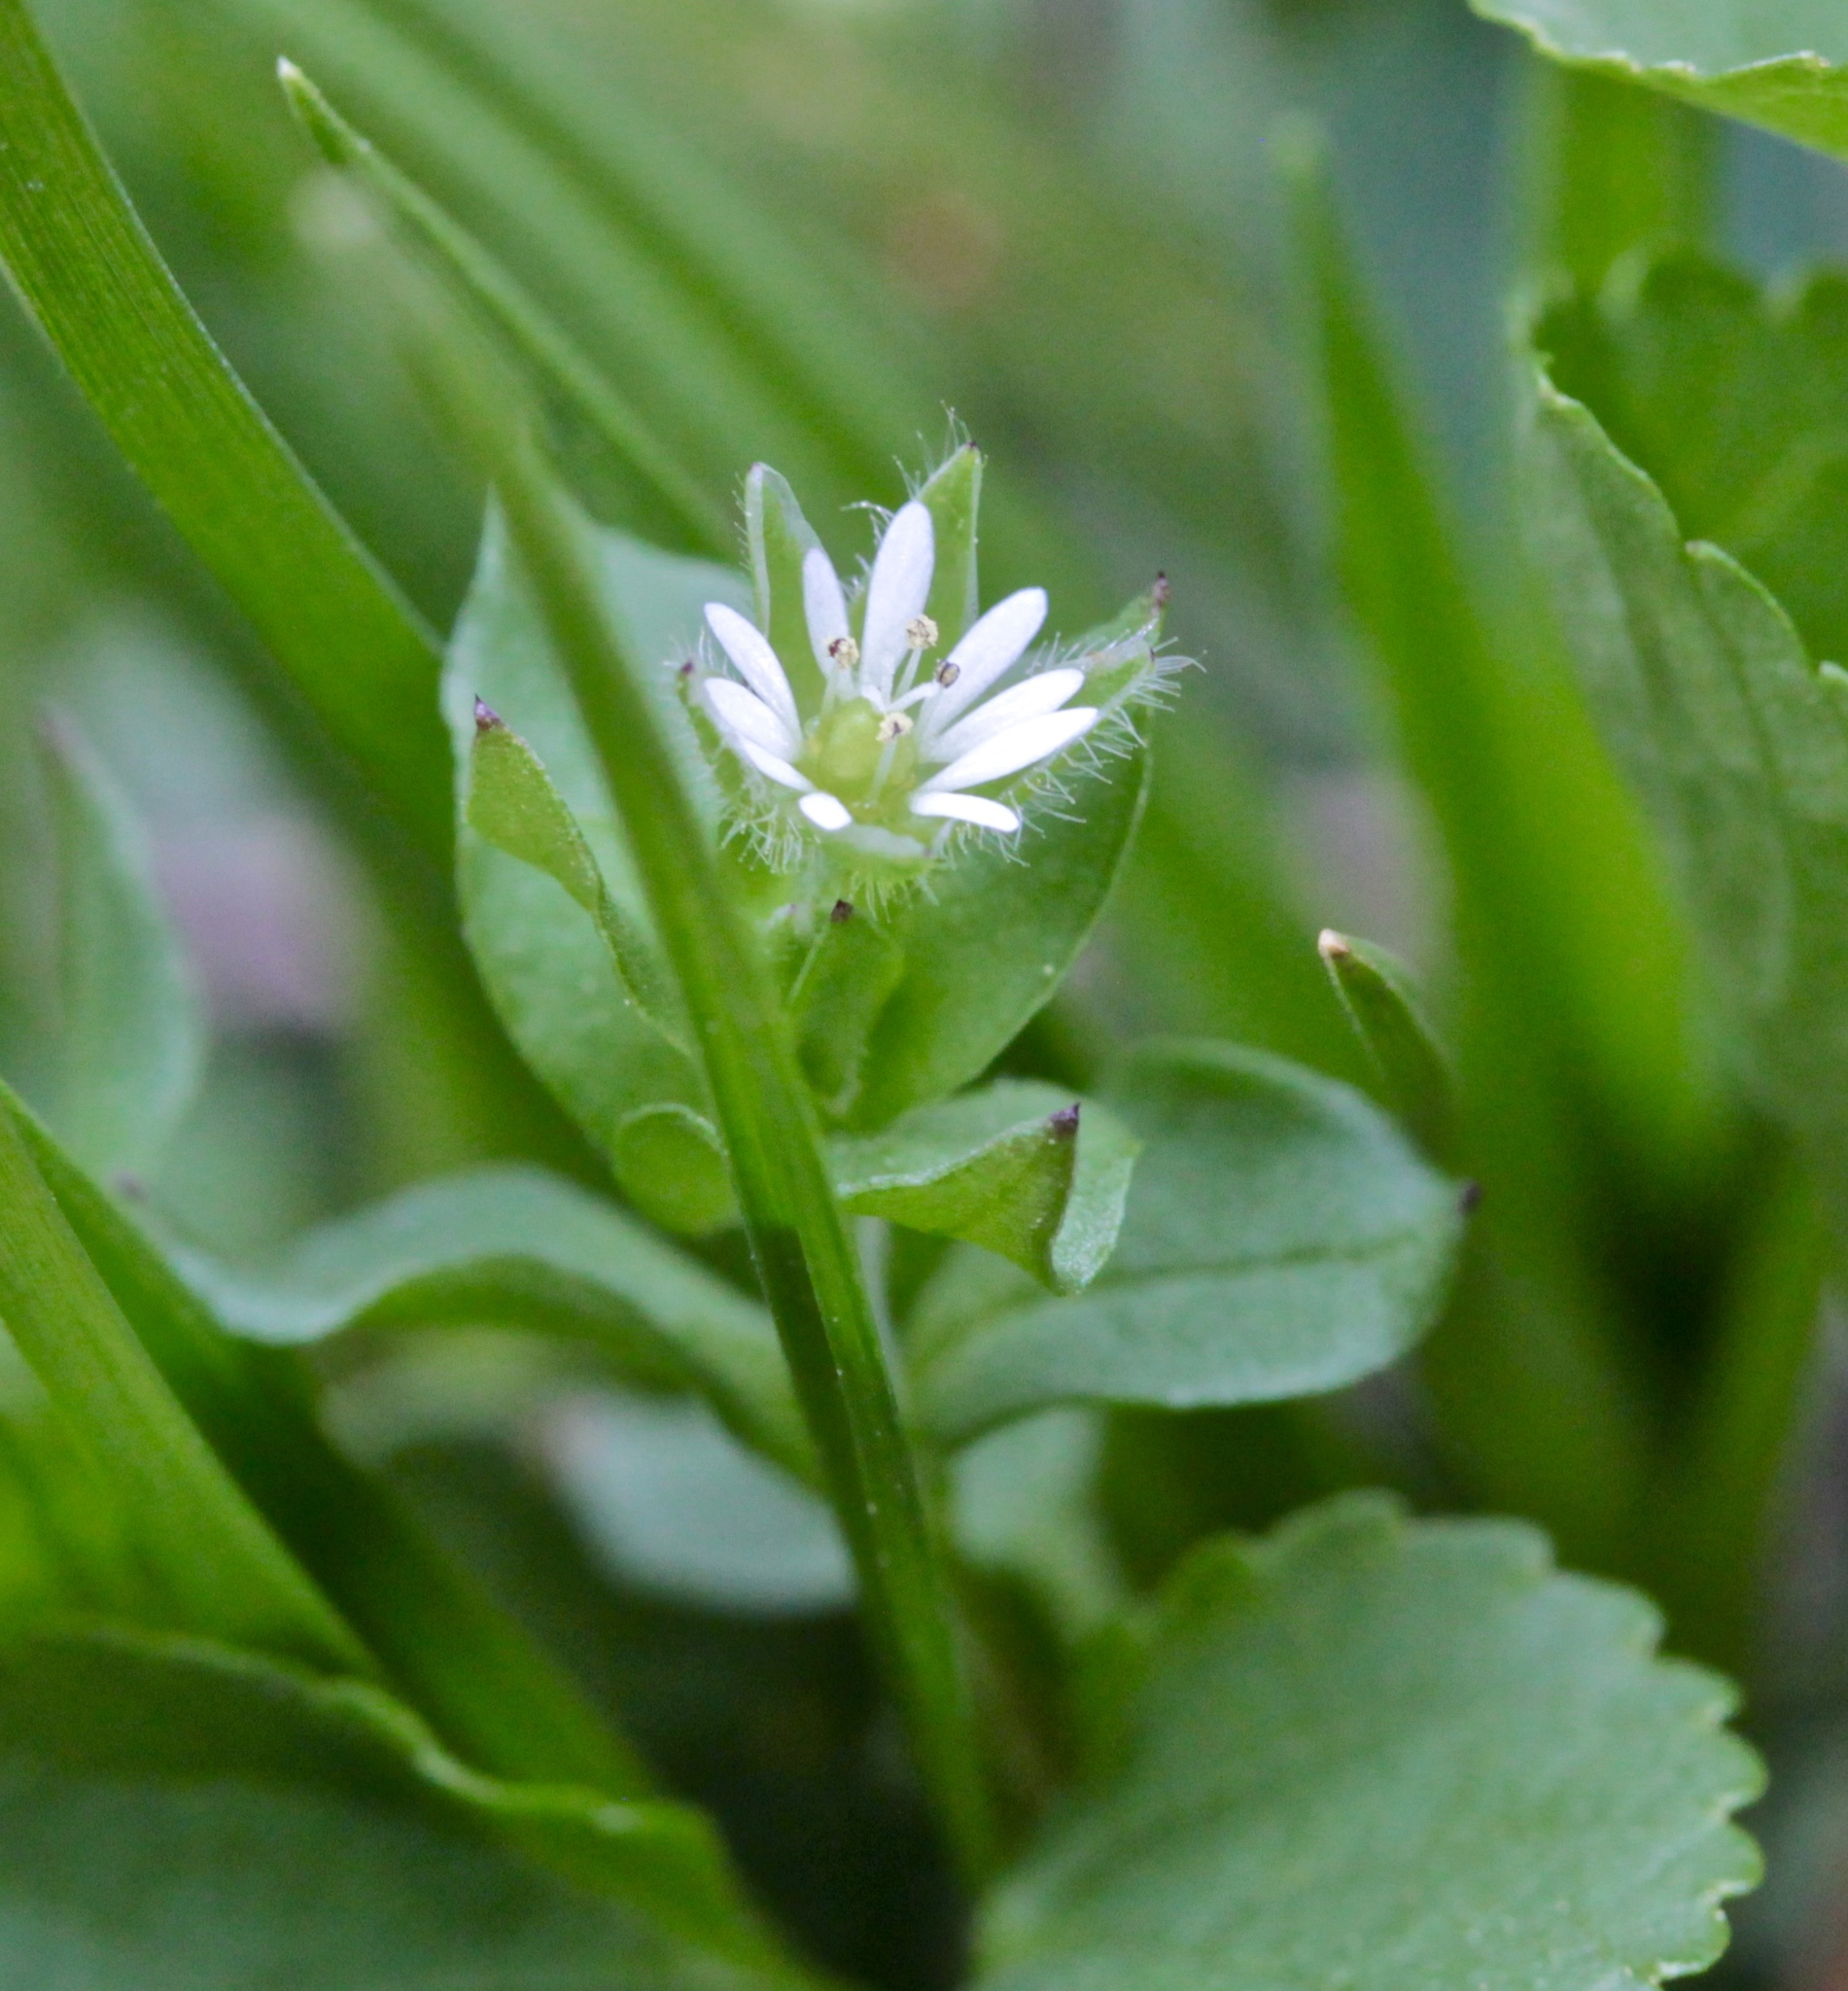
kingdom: Plantae
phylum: Tracheophyta
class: Magnoliopsida
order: Caryophyllales
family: Caryophyllaceae
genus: Stellaria
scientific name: Stellaria media
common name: Common chickweed
